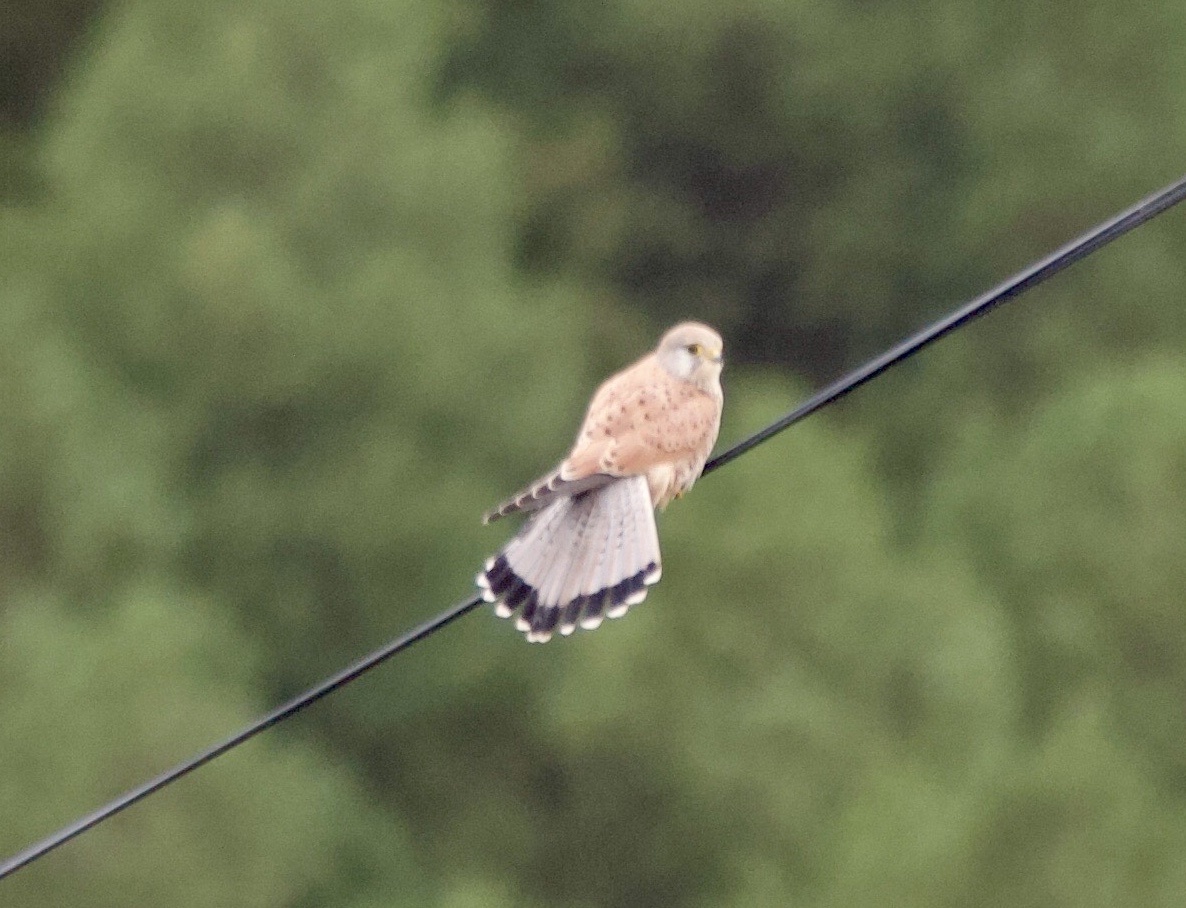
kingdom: Animalia
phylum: Chordata
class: Aves
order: Falconiformes
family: Falconidae
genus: Falco
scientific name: Falco tinnunculus
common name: Common kestrel
